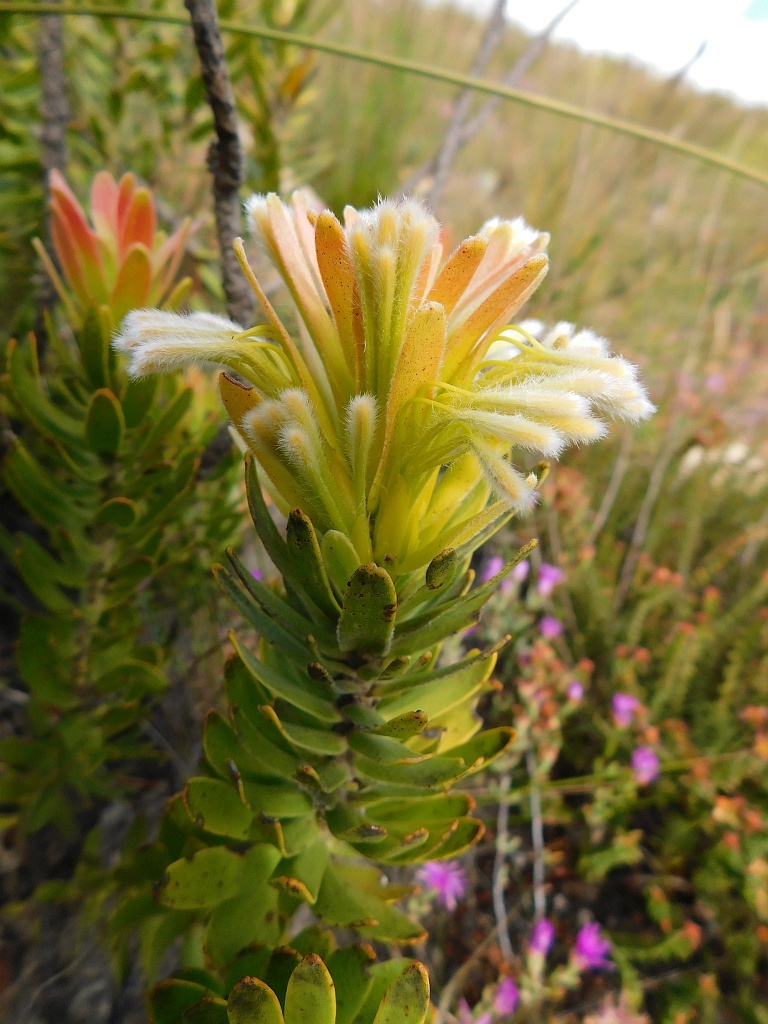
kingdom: Plantae
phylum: Tracheophyta
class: Magnoliopsida
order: Proteales
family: Proteaceae
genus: Mimetes
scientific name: Mimetes cucullatus
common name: Common pagoda
